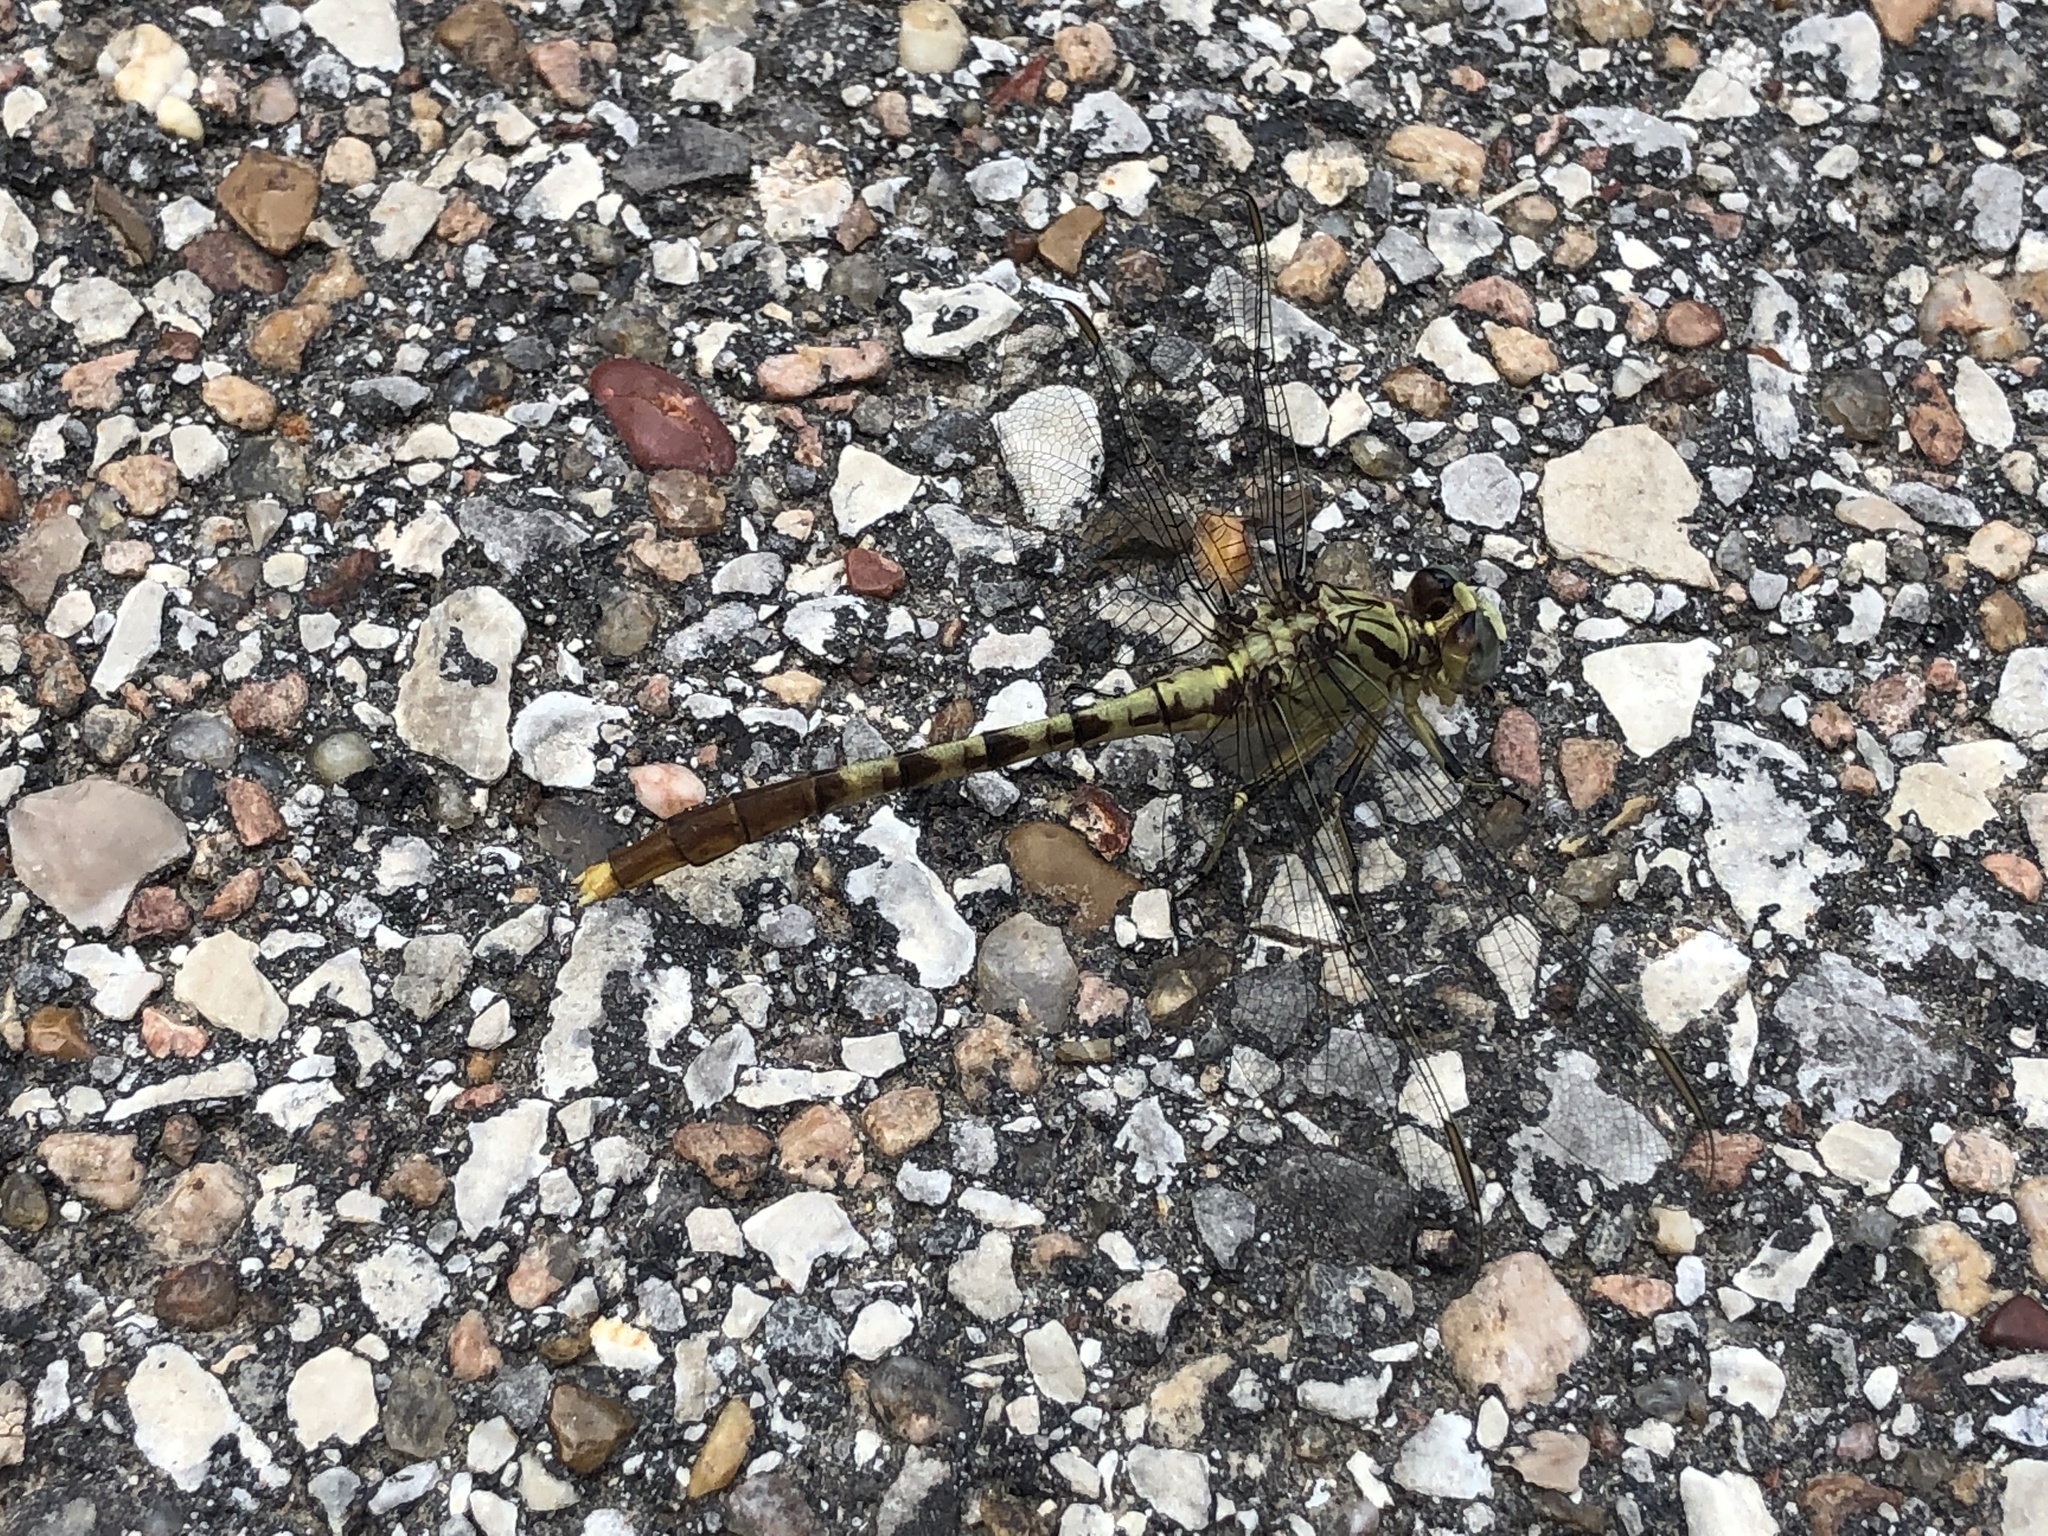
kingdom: Animalia
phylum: Arthropoda
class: Insecta
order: Odonata
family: Gomphidae
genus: Arigomphus
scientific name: Arigomphus submedianus
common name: Jade clubtail
